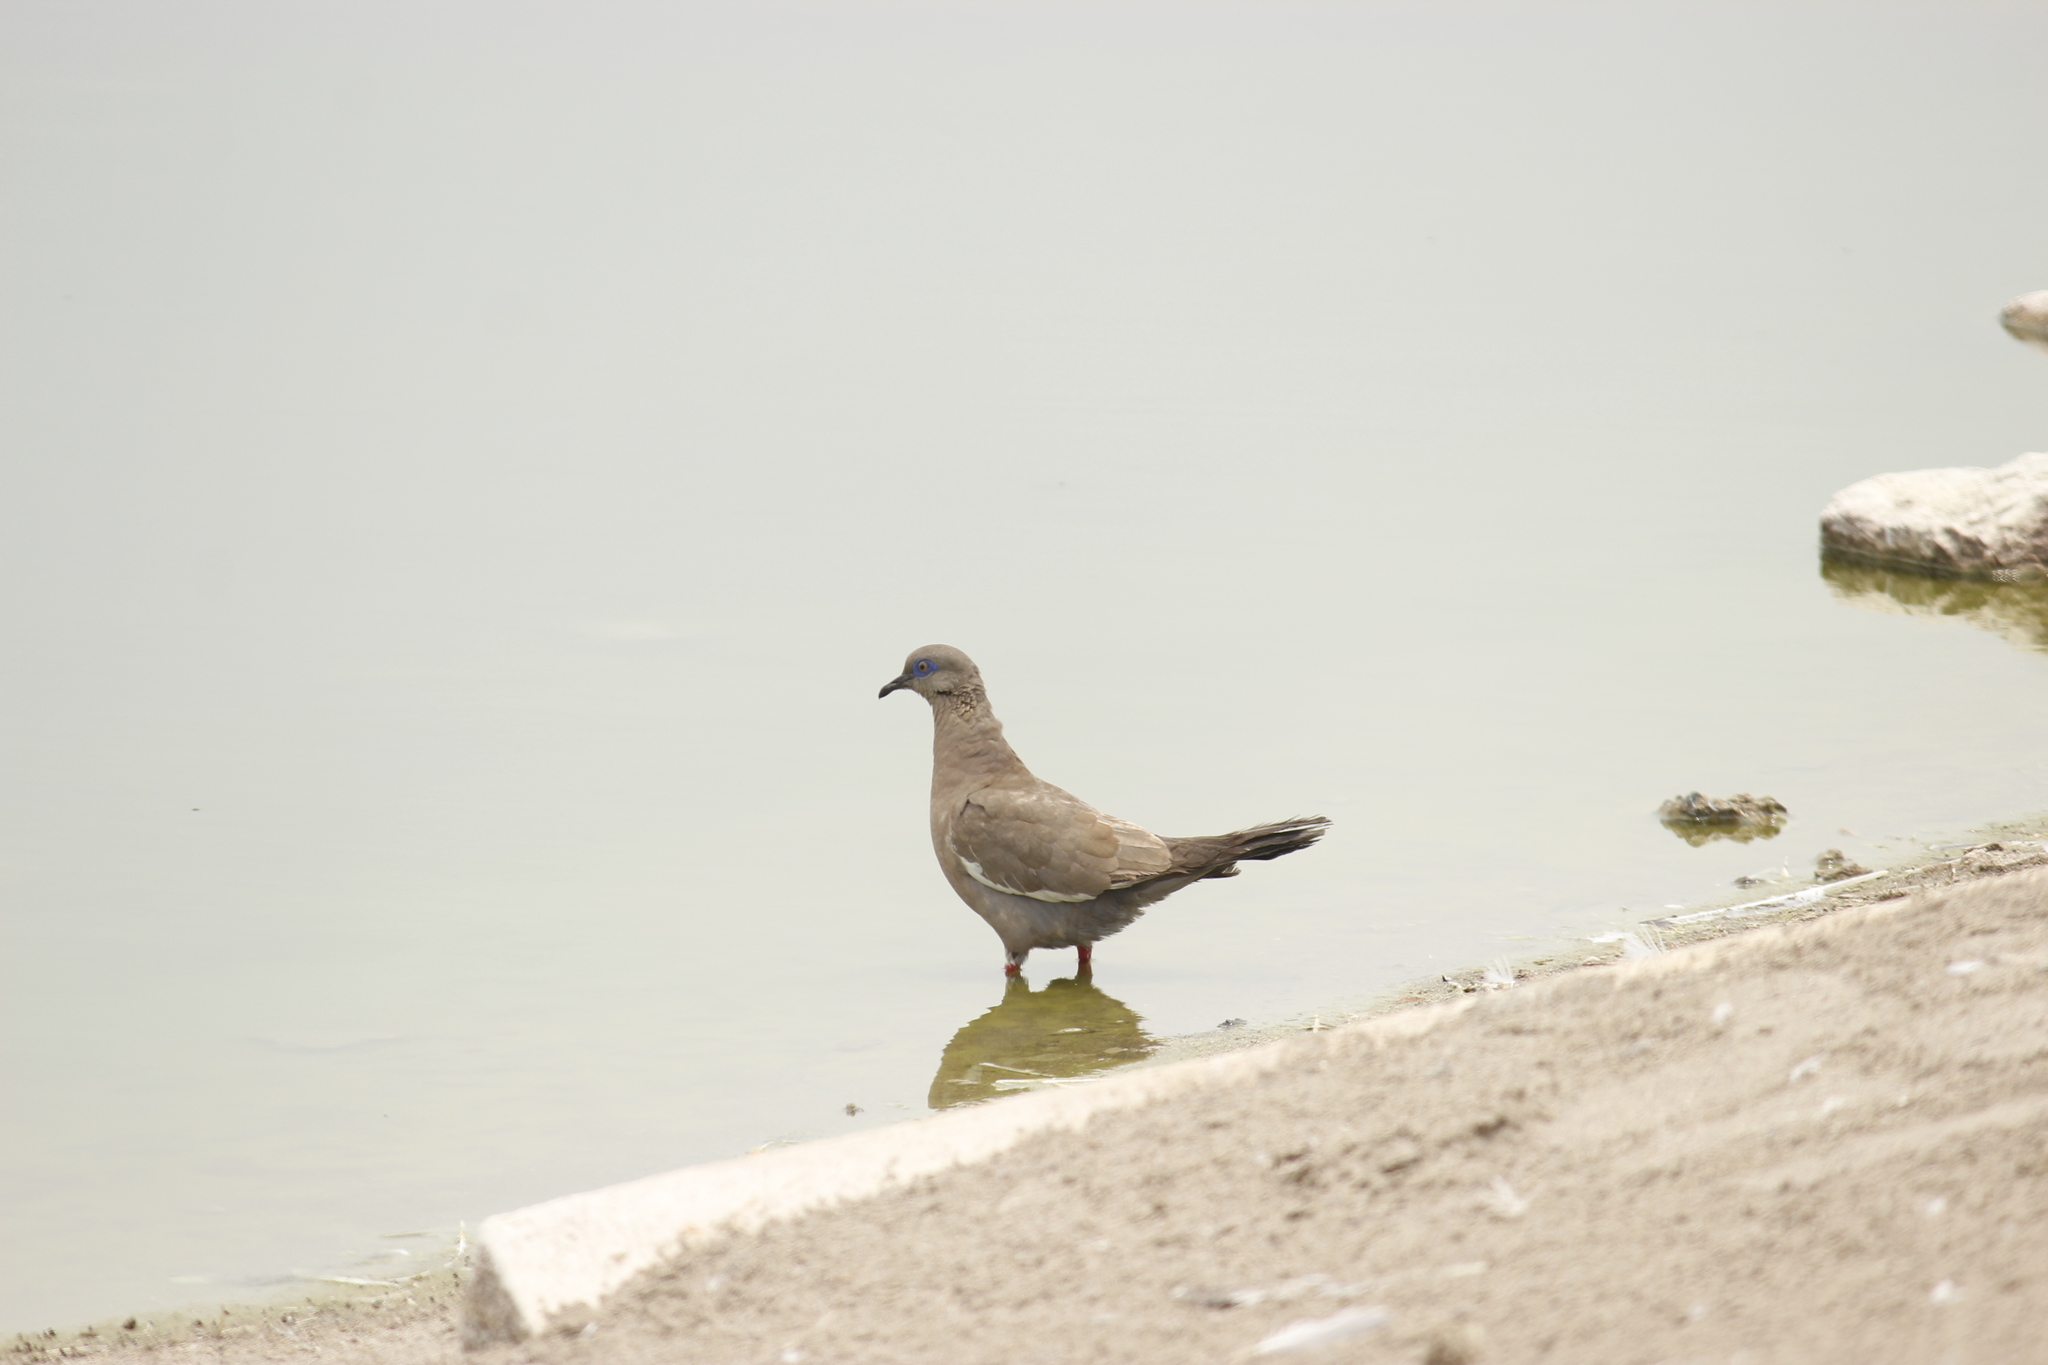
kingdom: Animalia
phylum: Chordata
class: Aves
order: Columbiformes
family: Columbidae
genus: Zenaida
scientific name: Zenaida meloda
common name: West peruvian dove
